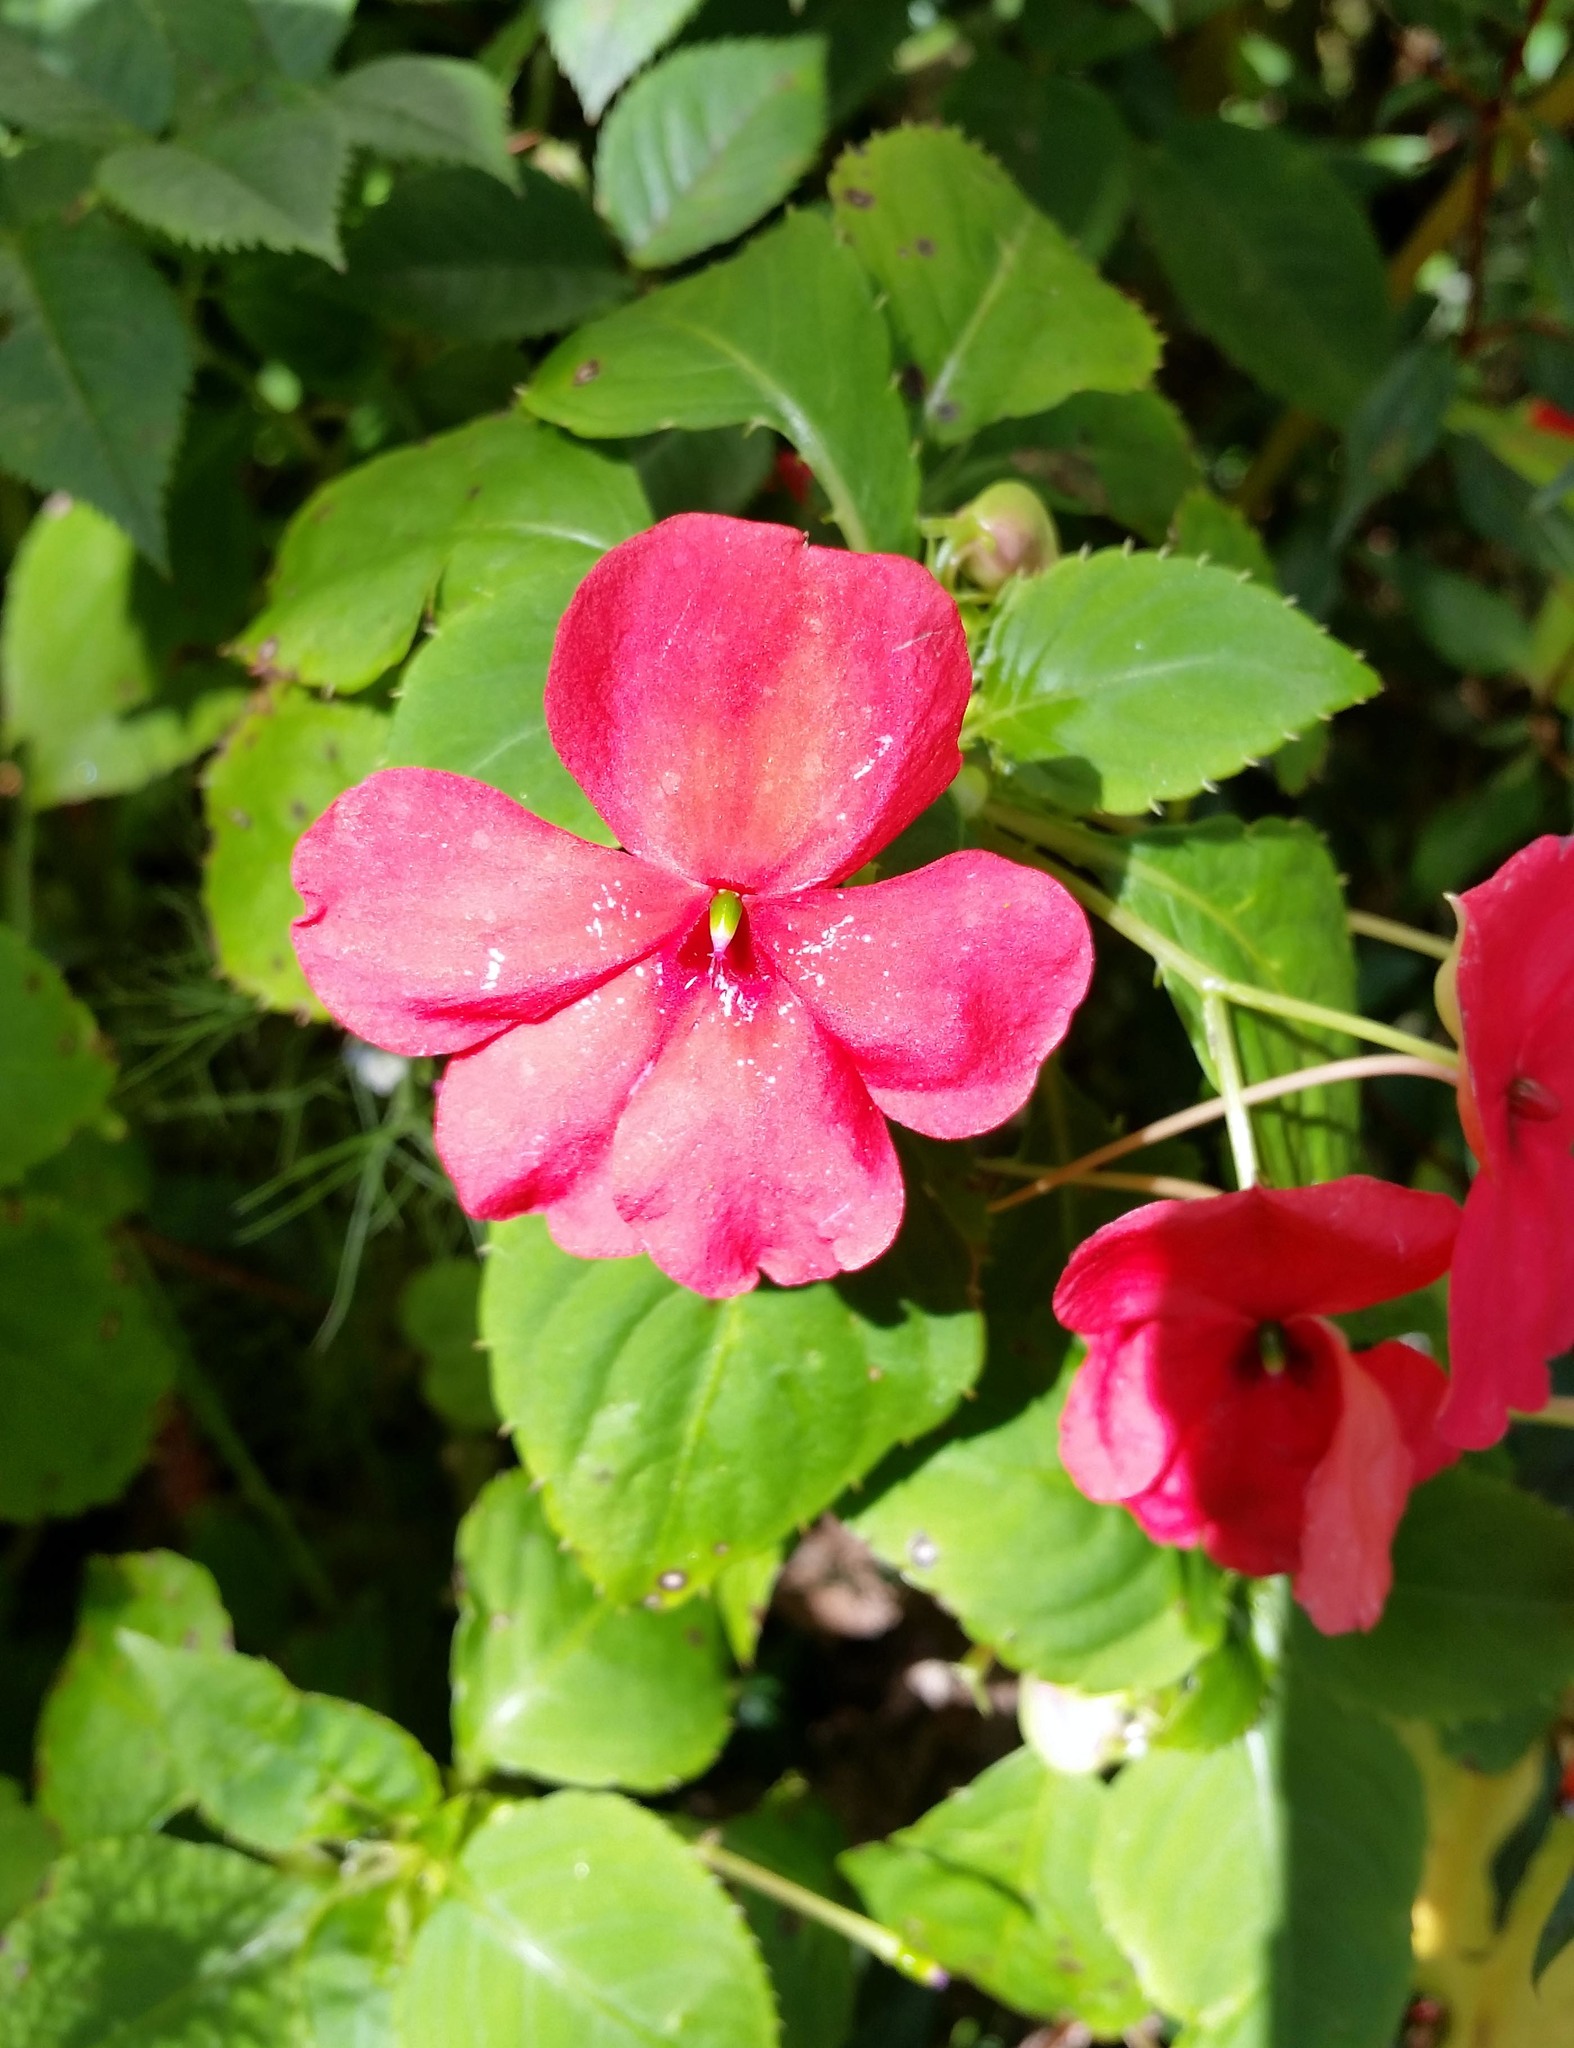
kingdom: Plantae
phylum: Tracheophyta
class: Magnoliopsida
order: Ericales
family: Balsaminaceae
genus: Impatiens
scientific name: Impatiens walleriana
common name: Buzzy lizzy
